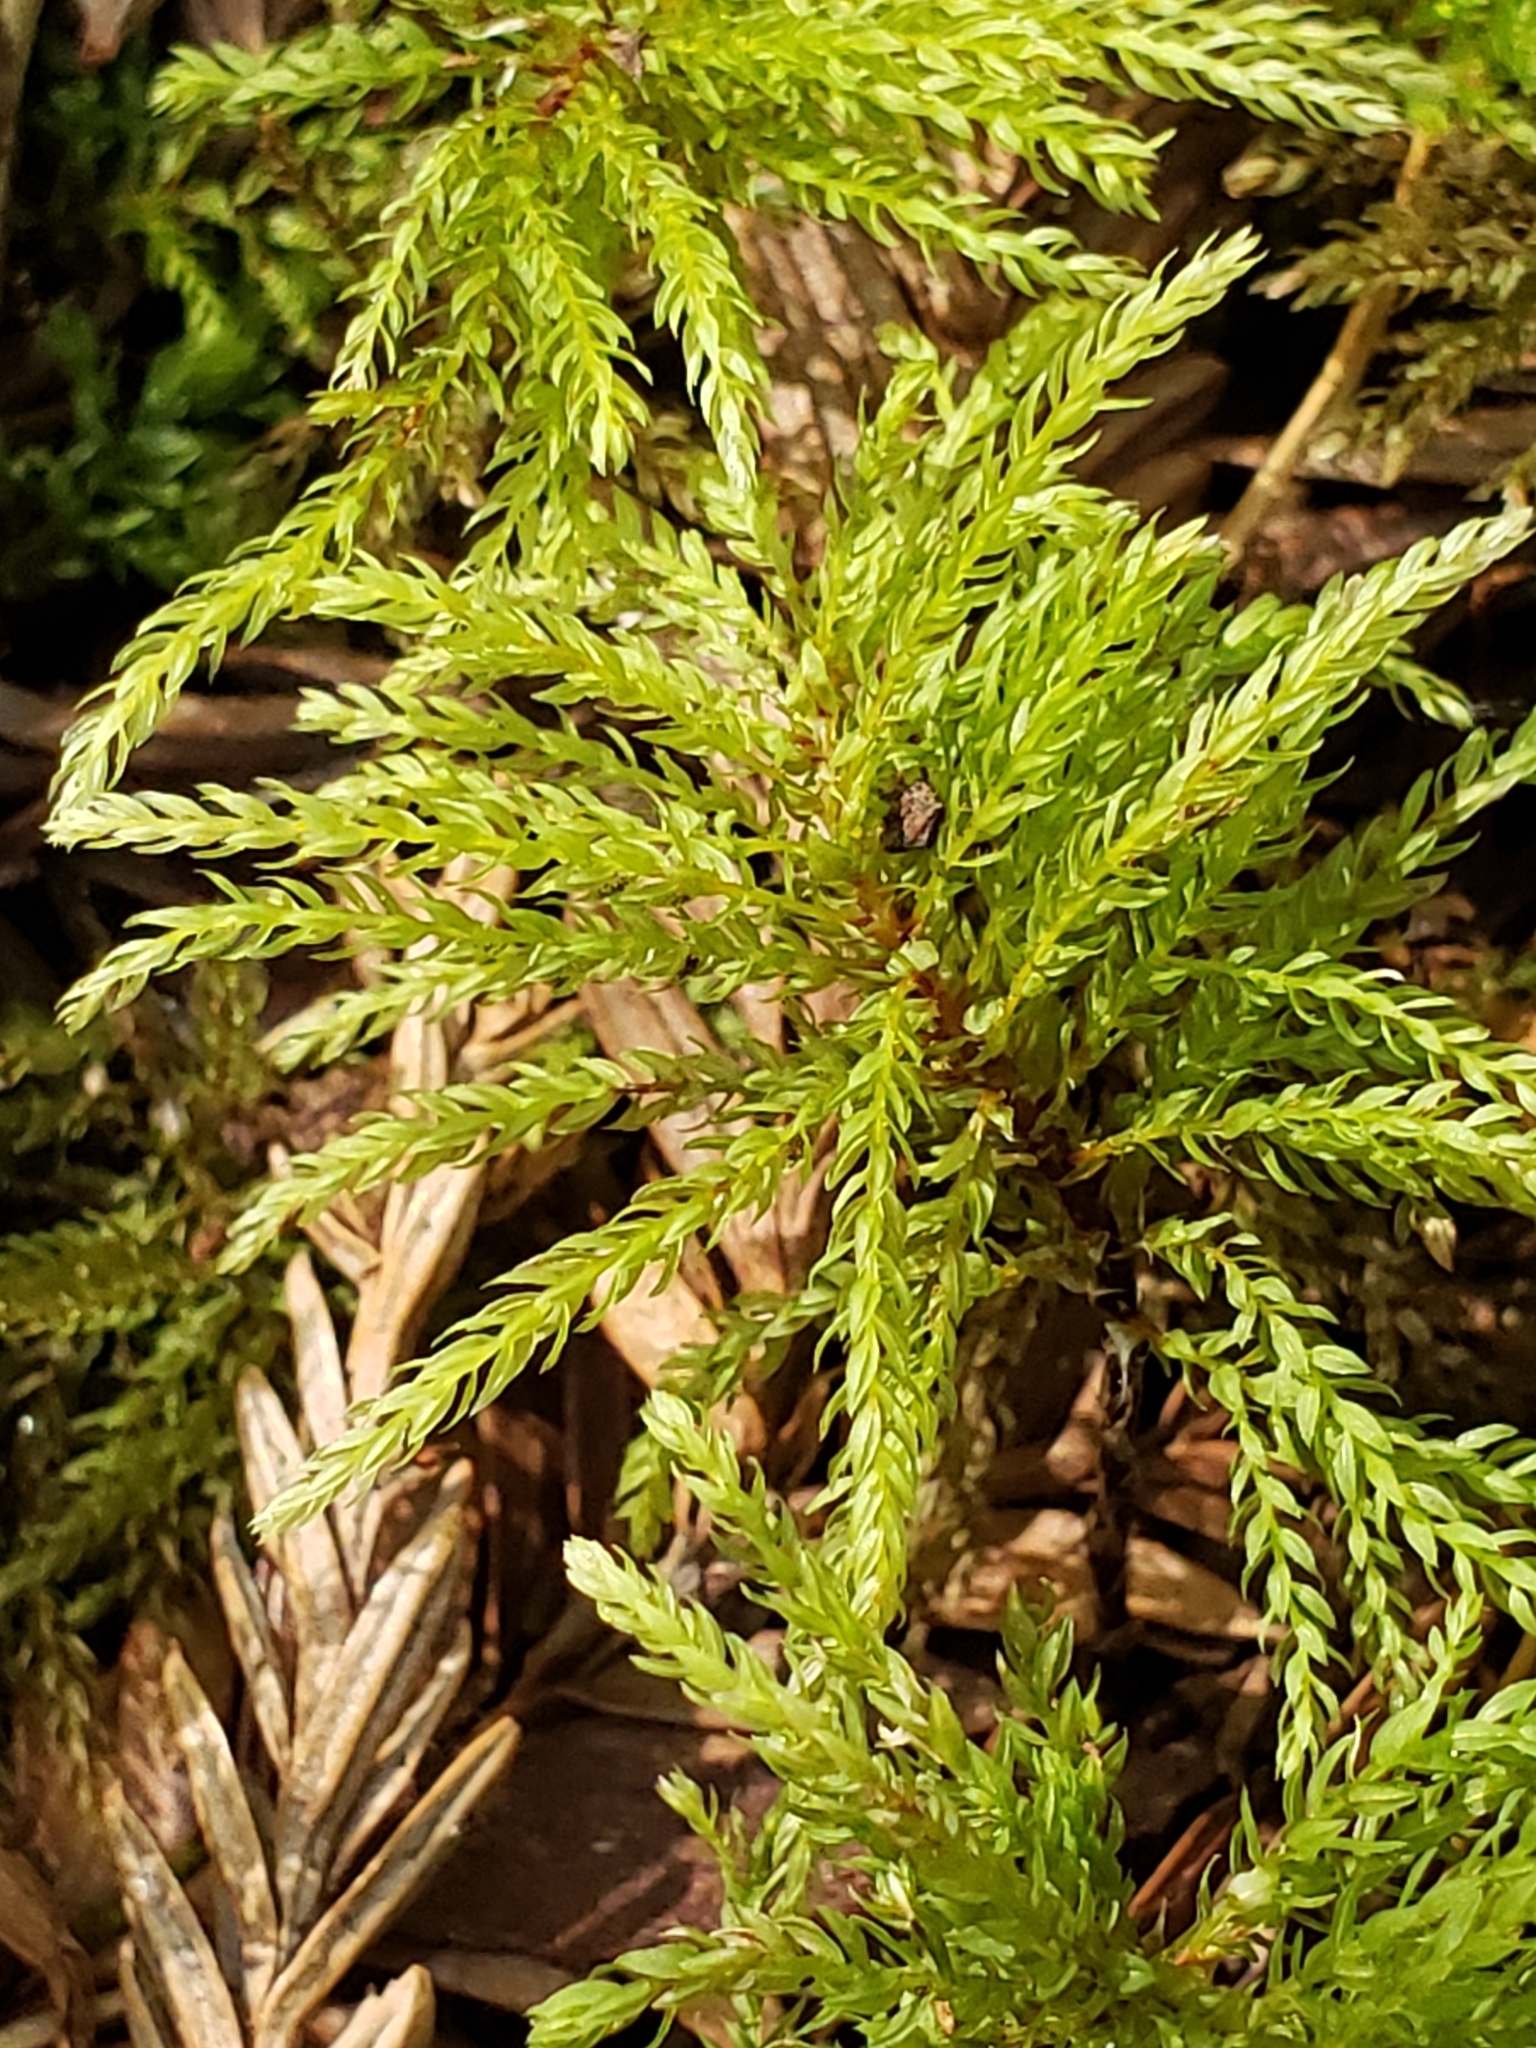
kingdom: Plantae
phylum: Bryophyta
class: Bryopsida
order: Bryales
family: Mniaceae
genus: Leucolepis
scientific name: Leucolepis acanthoneura
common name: Leucolepis umbrella moss
